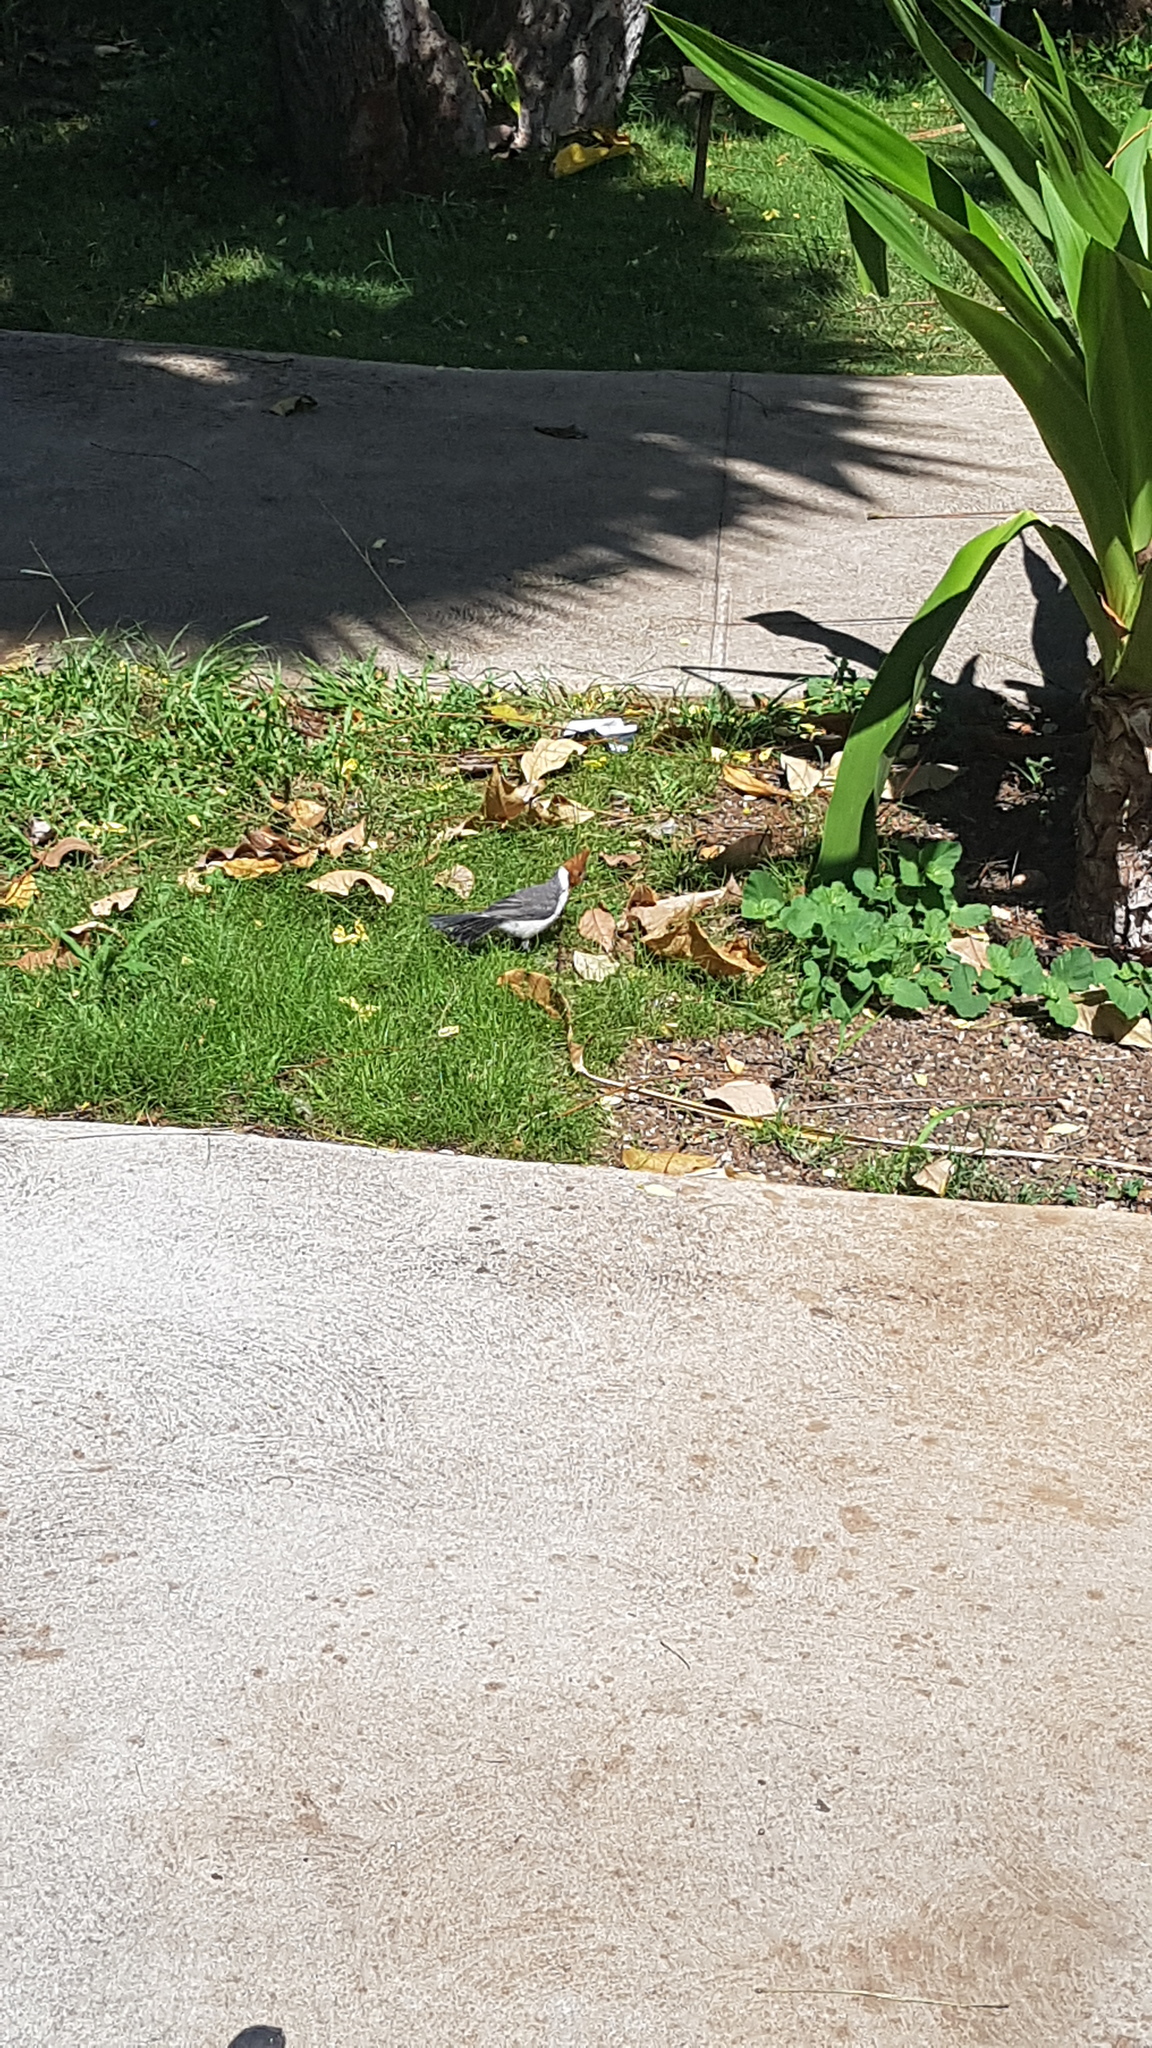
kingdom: Animalia
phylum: Chordata
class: Aves
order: Passeriformes
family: Thraupidae
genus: Paroaria
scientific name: Paroaria coronata
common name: Red-crested cardinal
